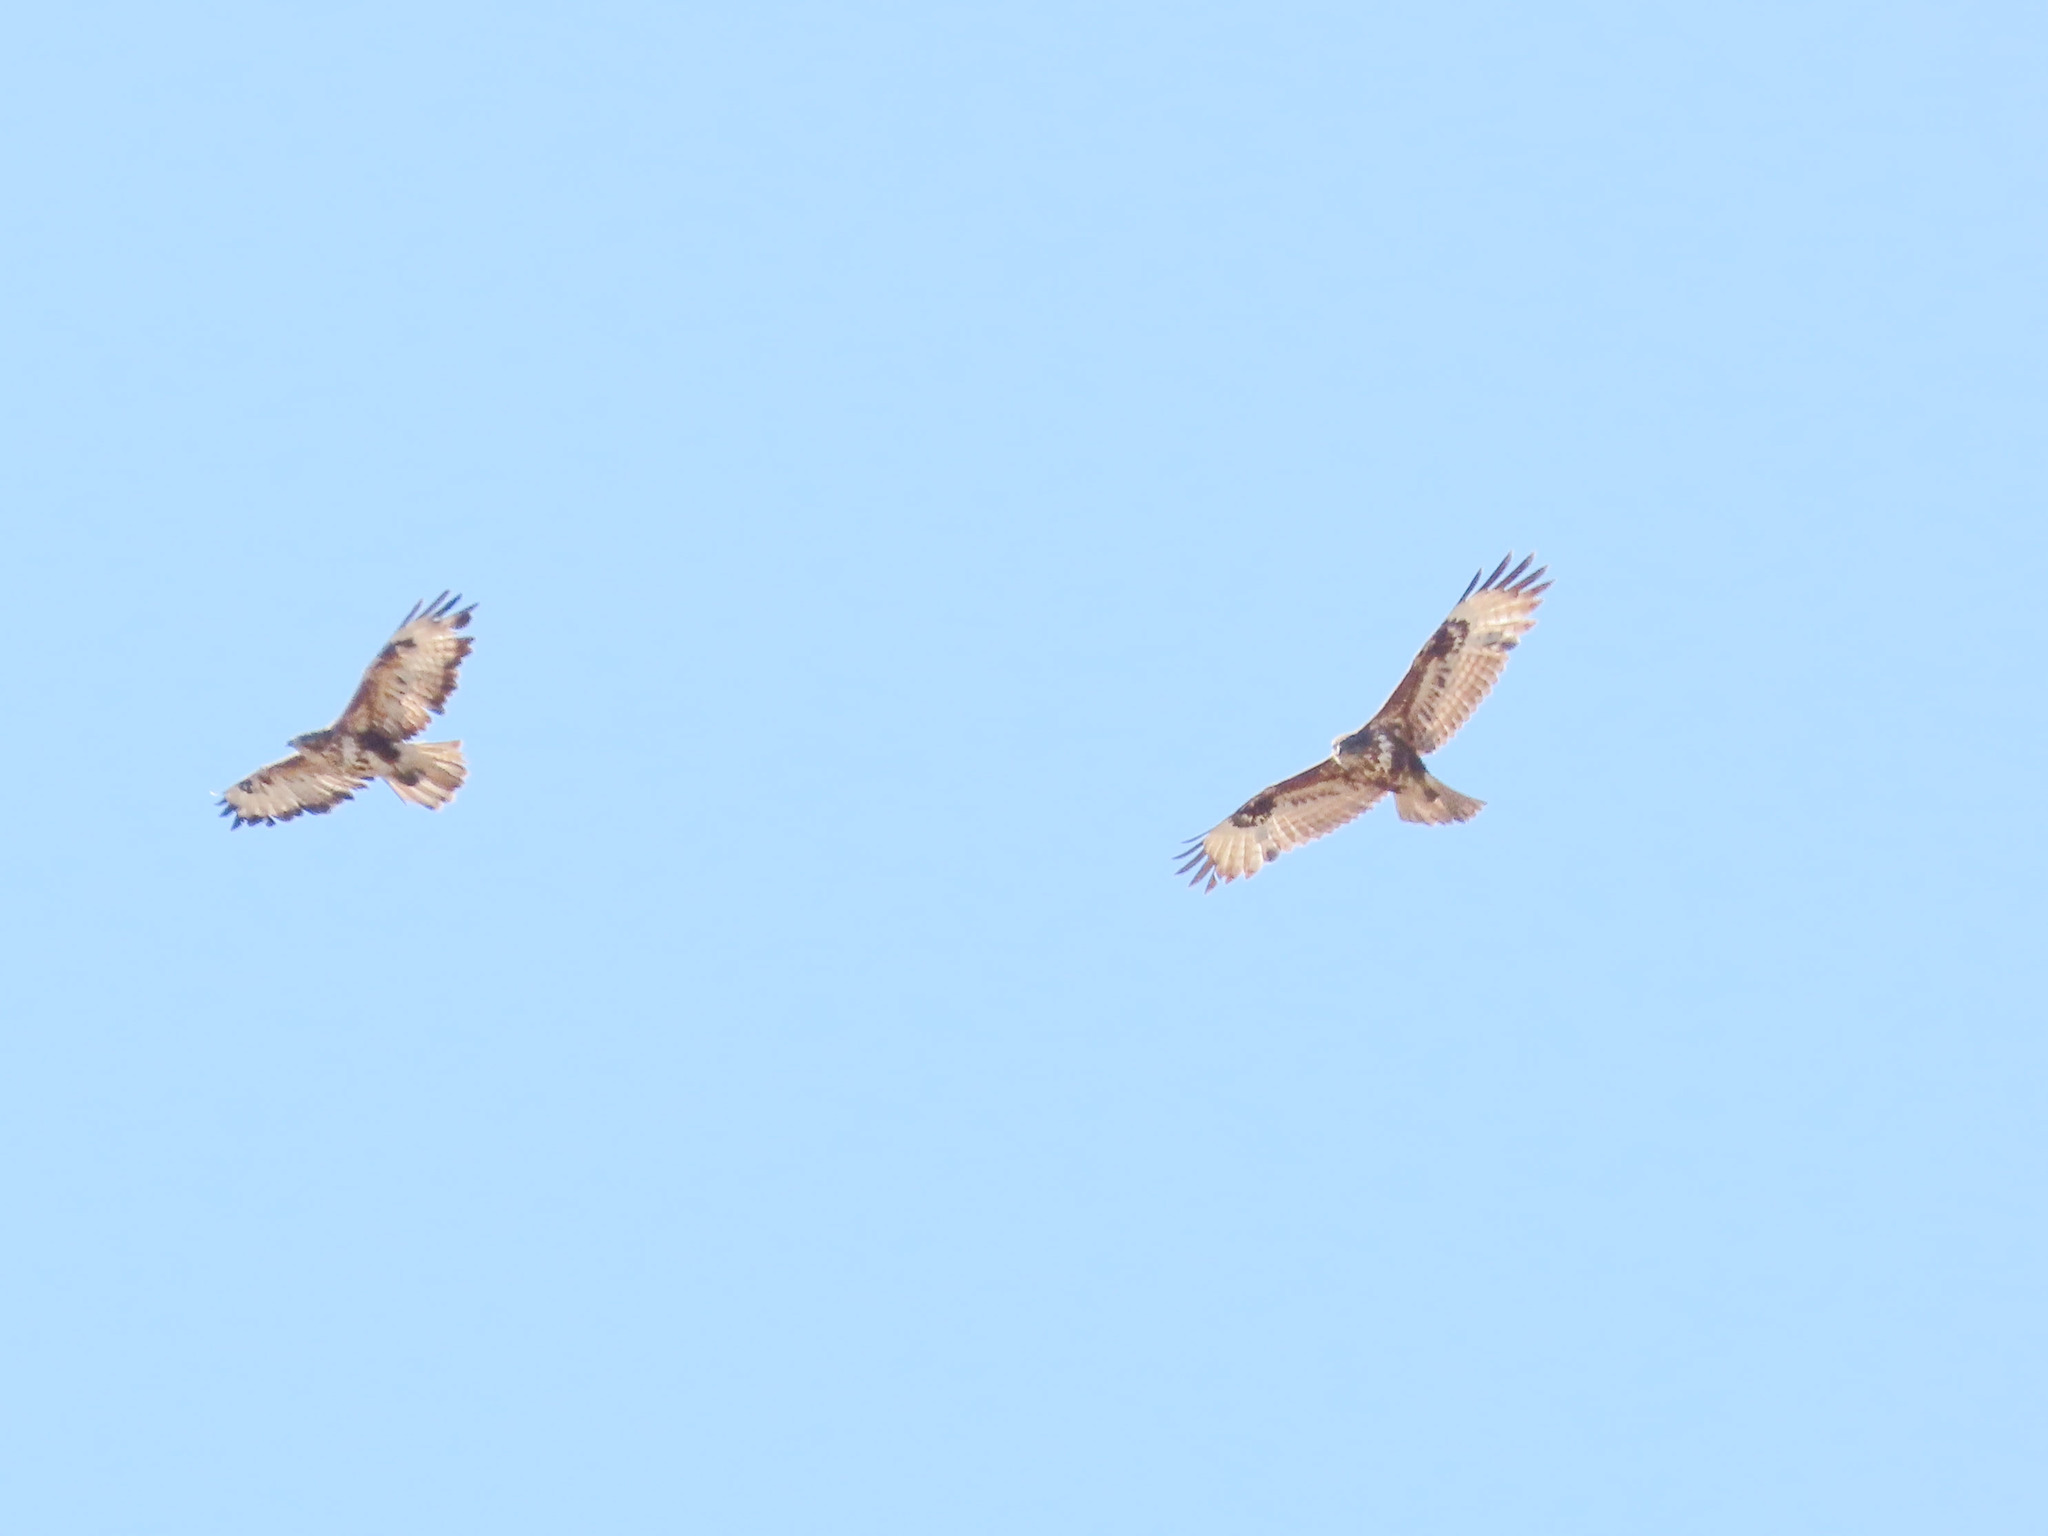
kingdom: Animalia
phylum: Chordata
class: Aves
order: Accipitriformes
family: Accipitridae
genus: Buteo
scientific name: Buteo buteo
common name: Common buzzard
